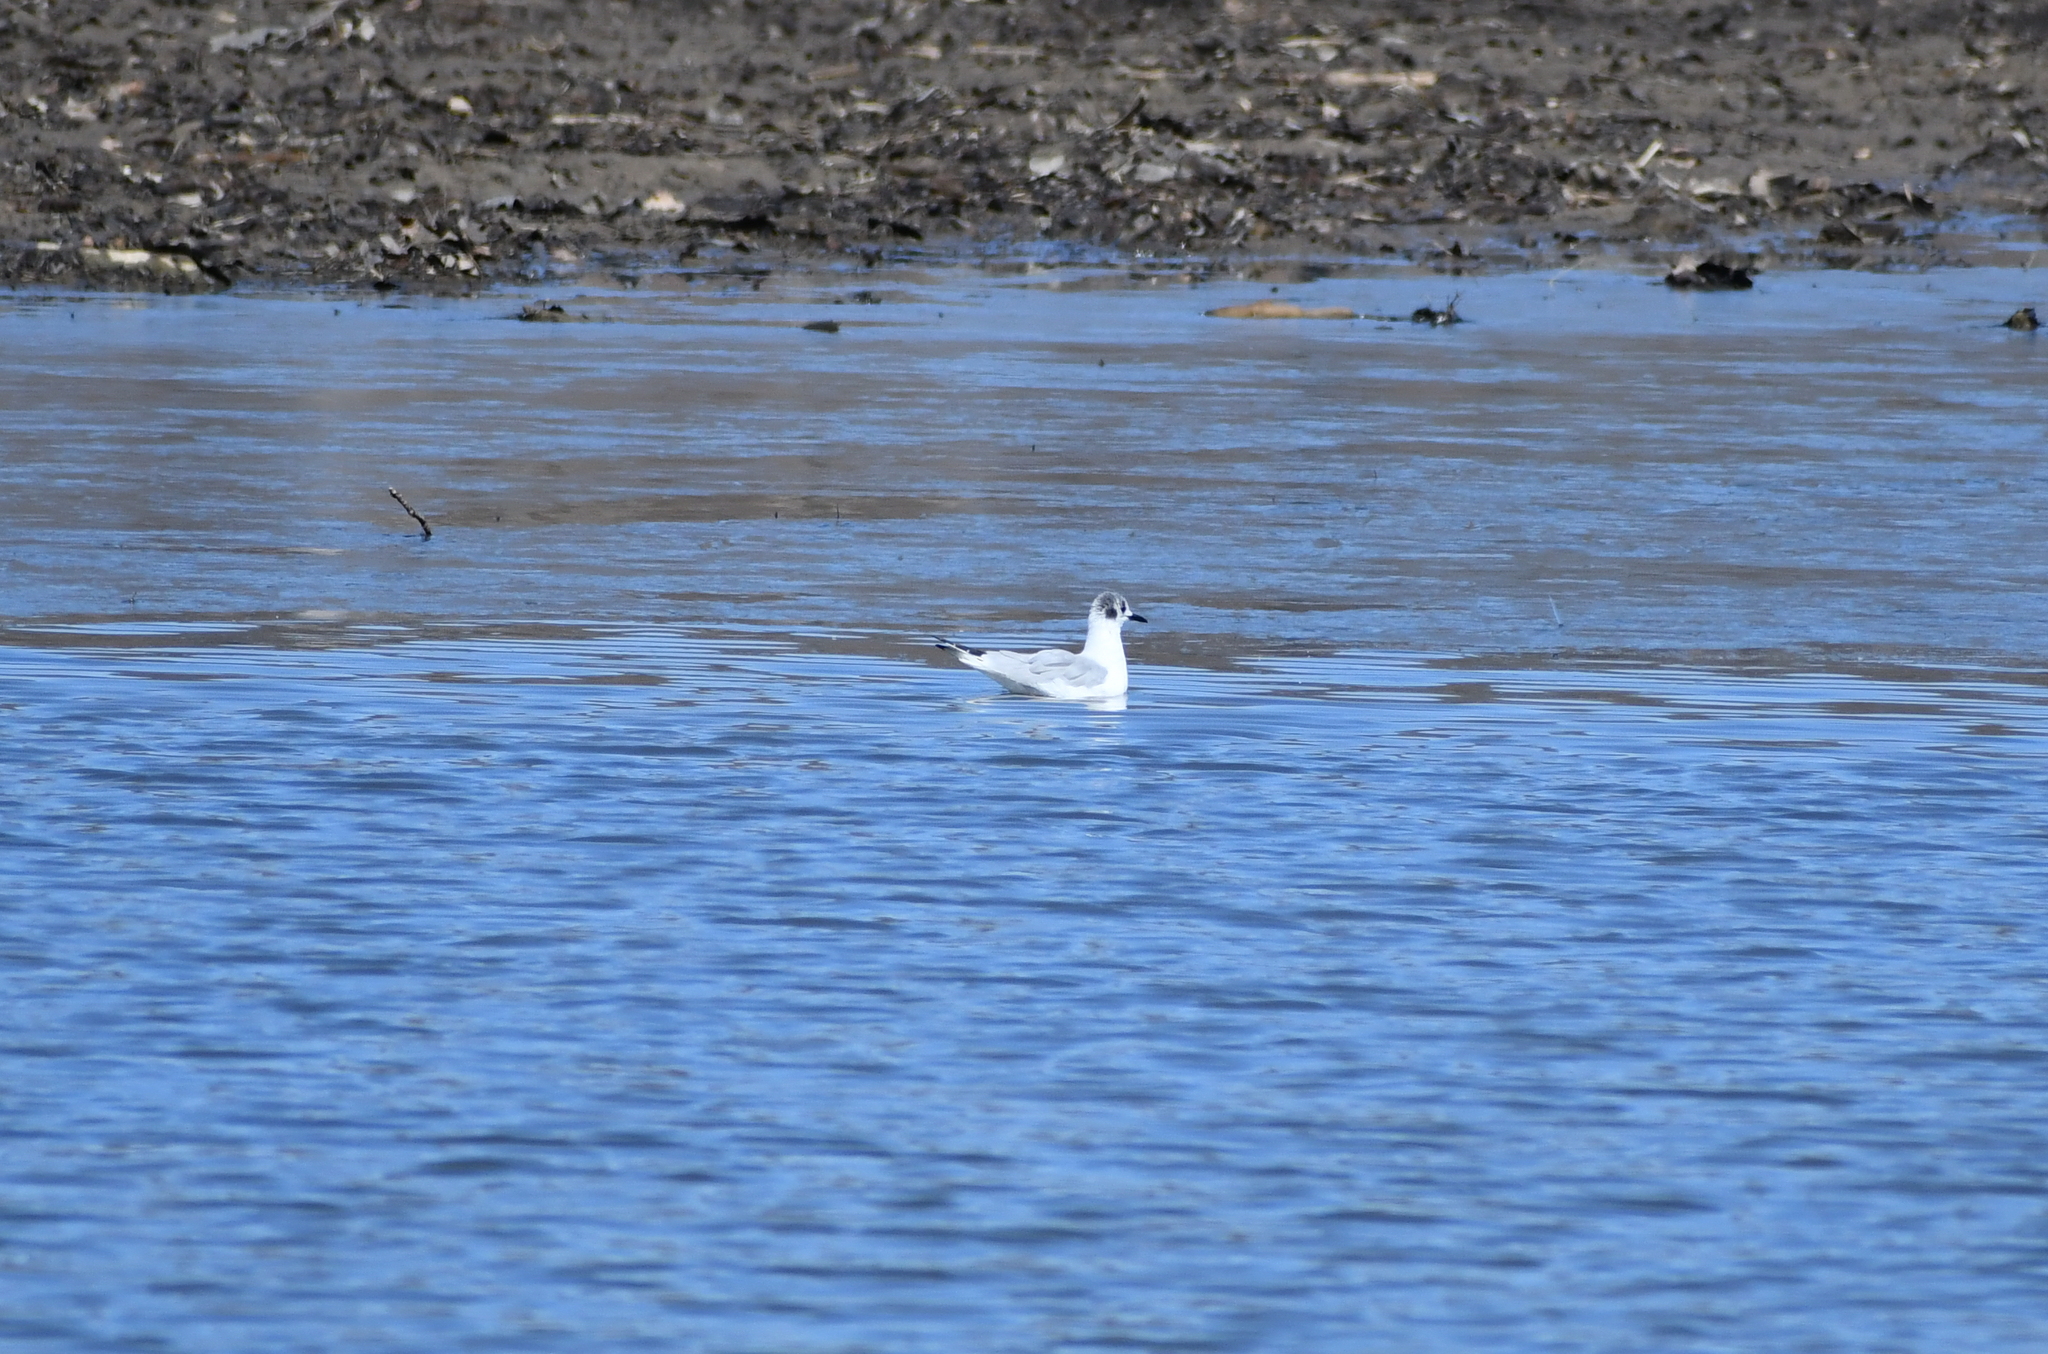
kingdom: Animalia
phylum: Chordata
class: Aves
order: Charadriiformes
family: Laridae
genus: Chroicocephalus
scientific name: Chroicocephalus philadelphia
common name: Bonaparte's gull
